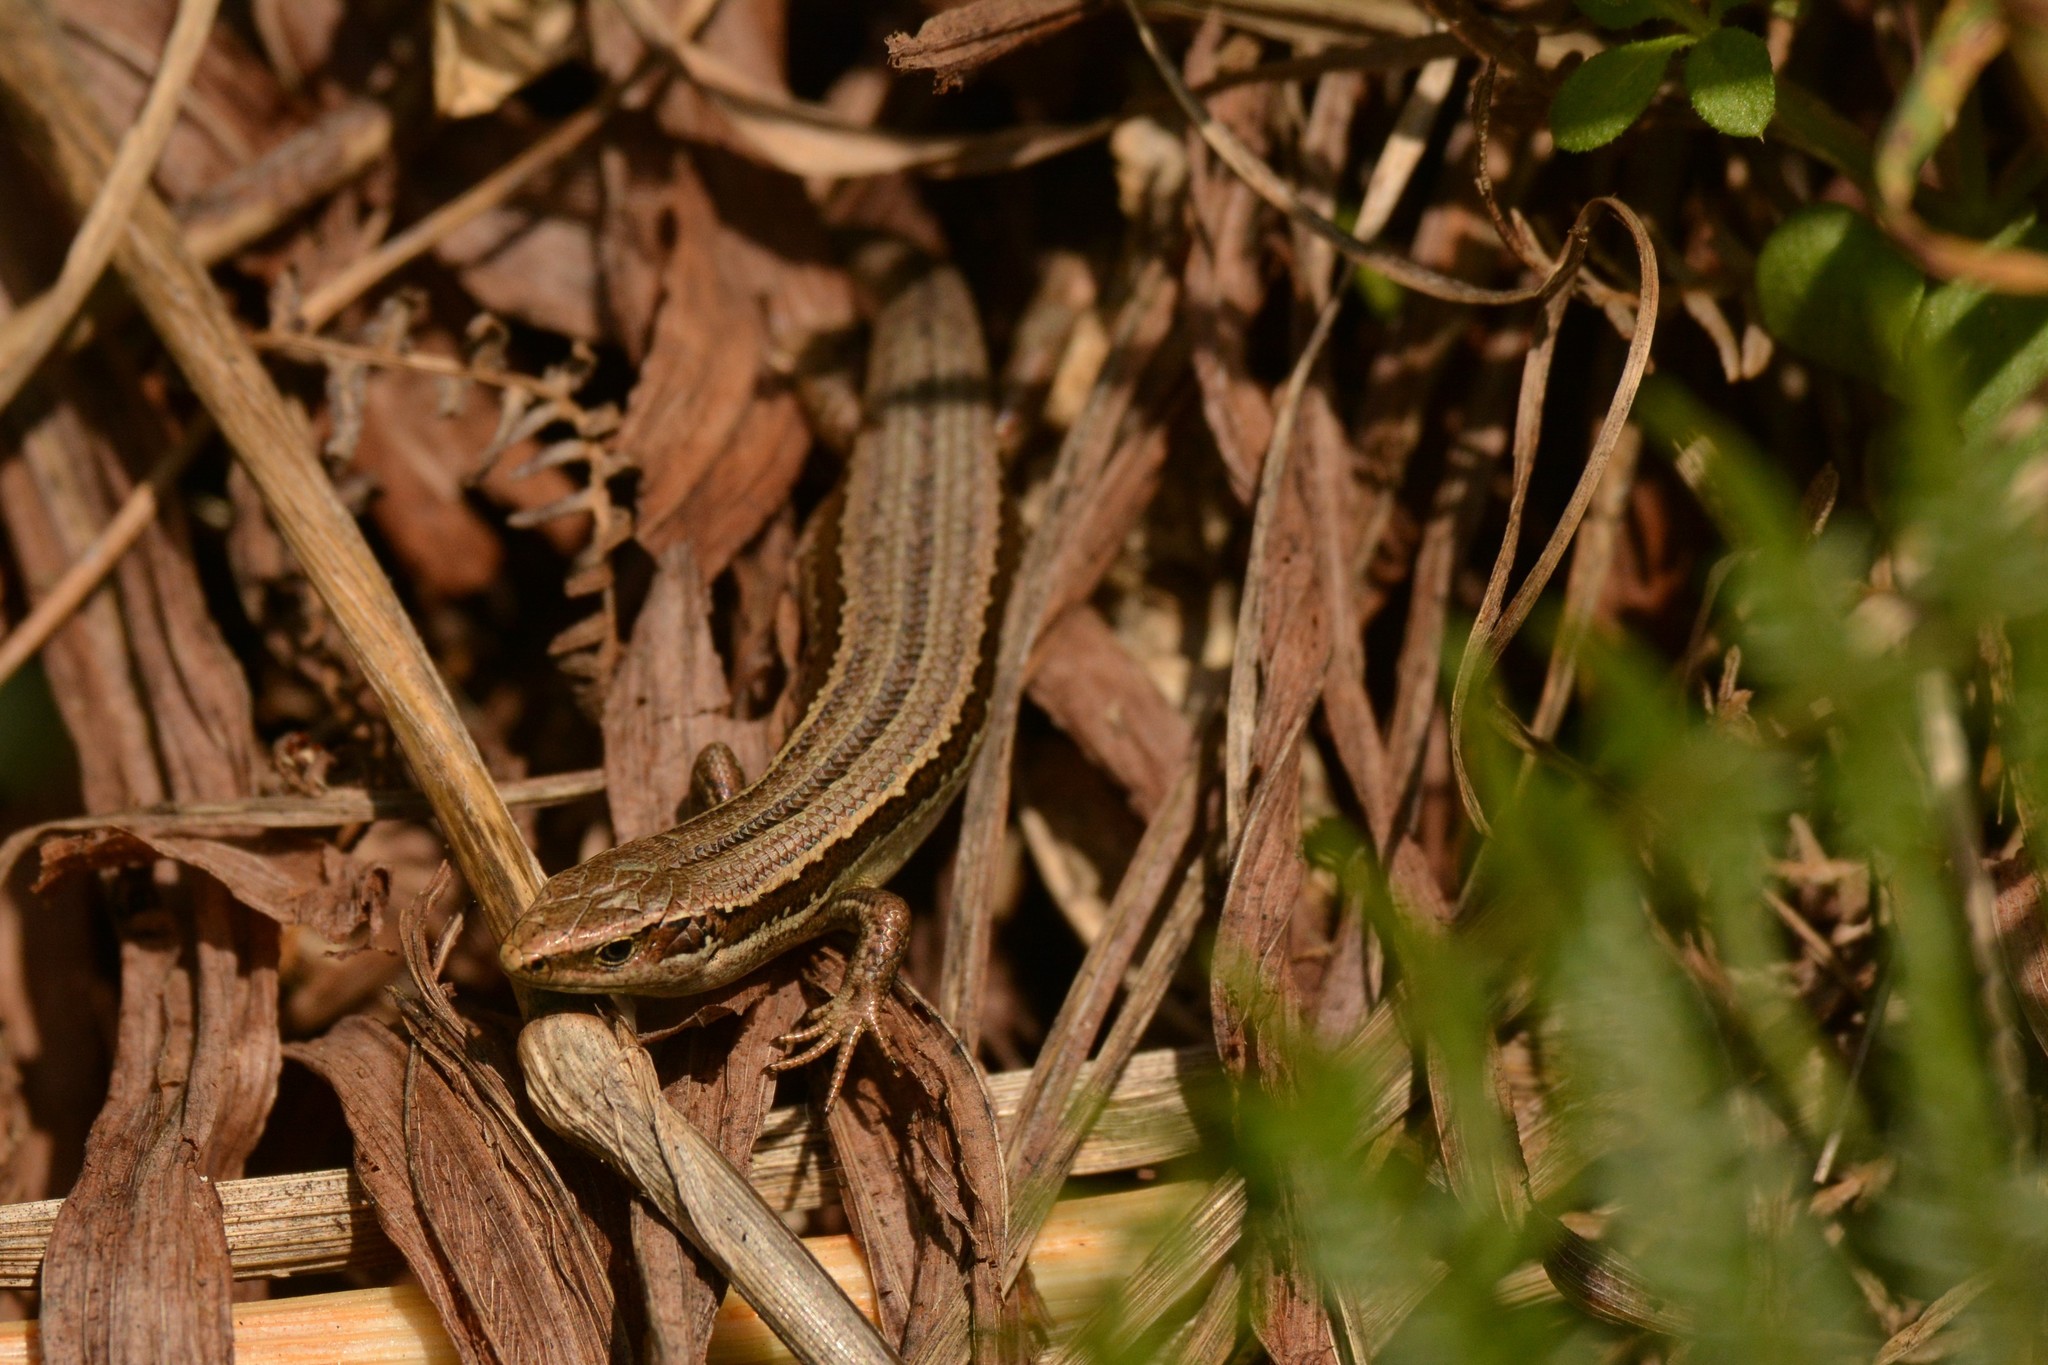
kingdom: Animalia
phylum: Chordata
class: Squamata
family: Scincidae
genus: Oligosoma
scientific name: Oligosoma polychroma
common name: Common new zealand skink
